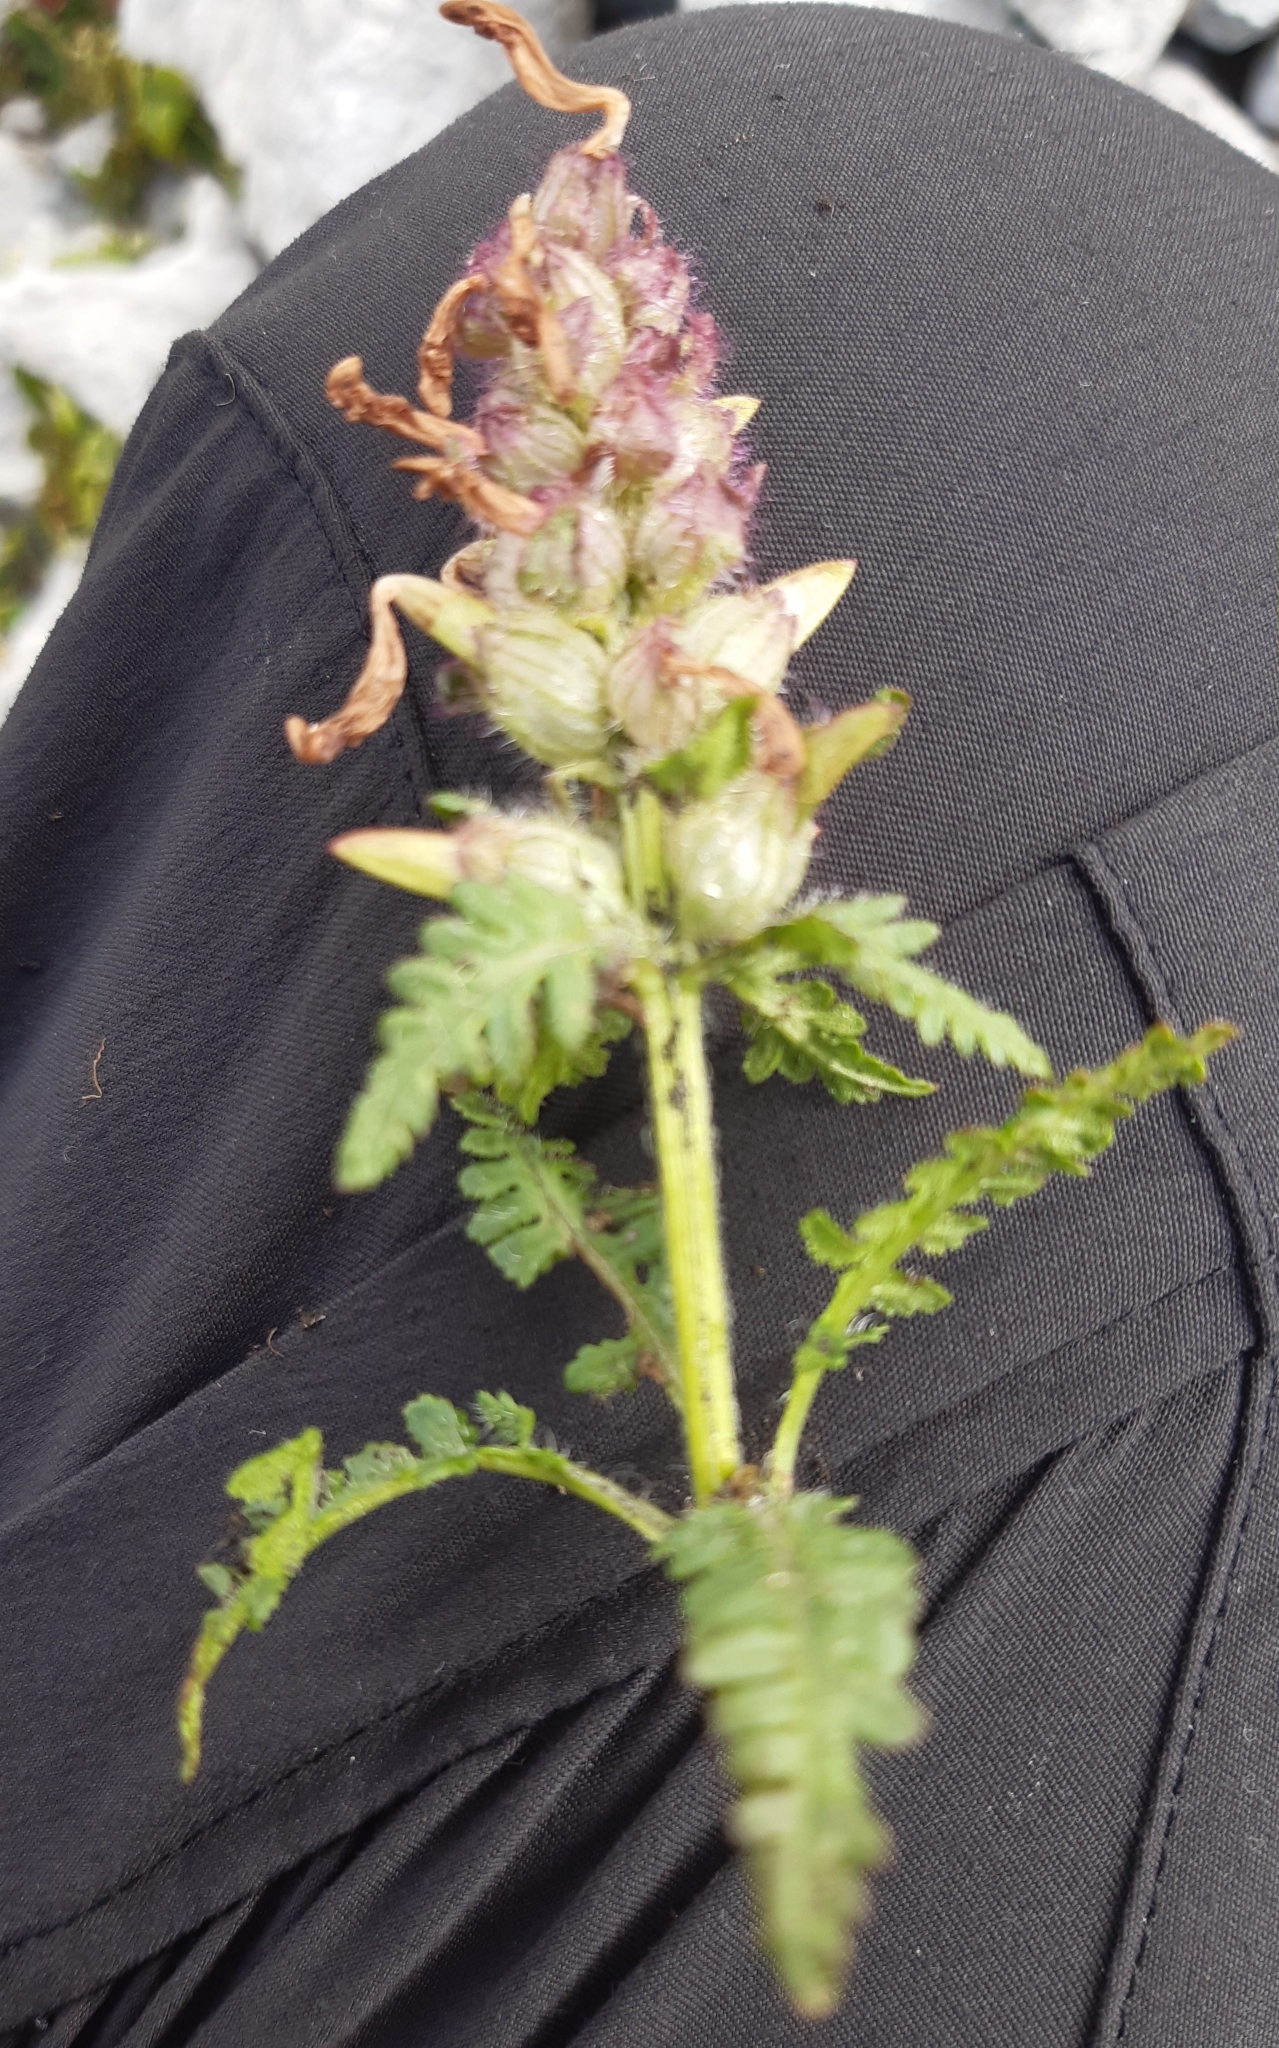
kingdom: Plantae
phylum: Tracheophyta
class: Magnoliopsida
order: Lamiales
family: Orobanchaceae
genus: Pedicularis
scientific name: Pedicularis verticillata
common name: Whorled lousewort
